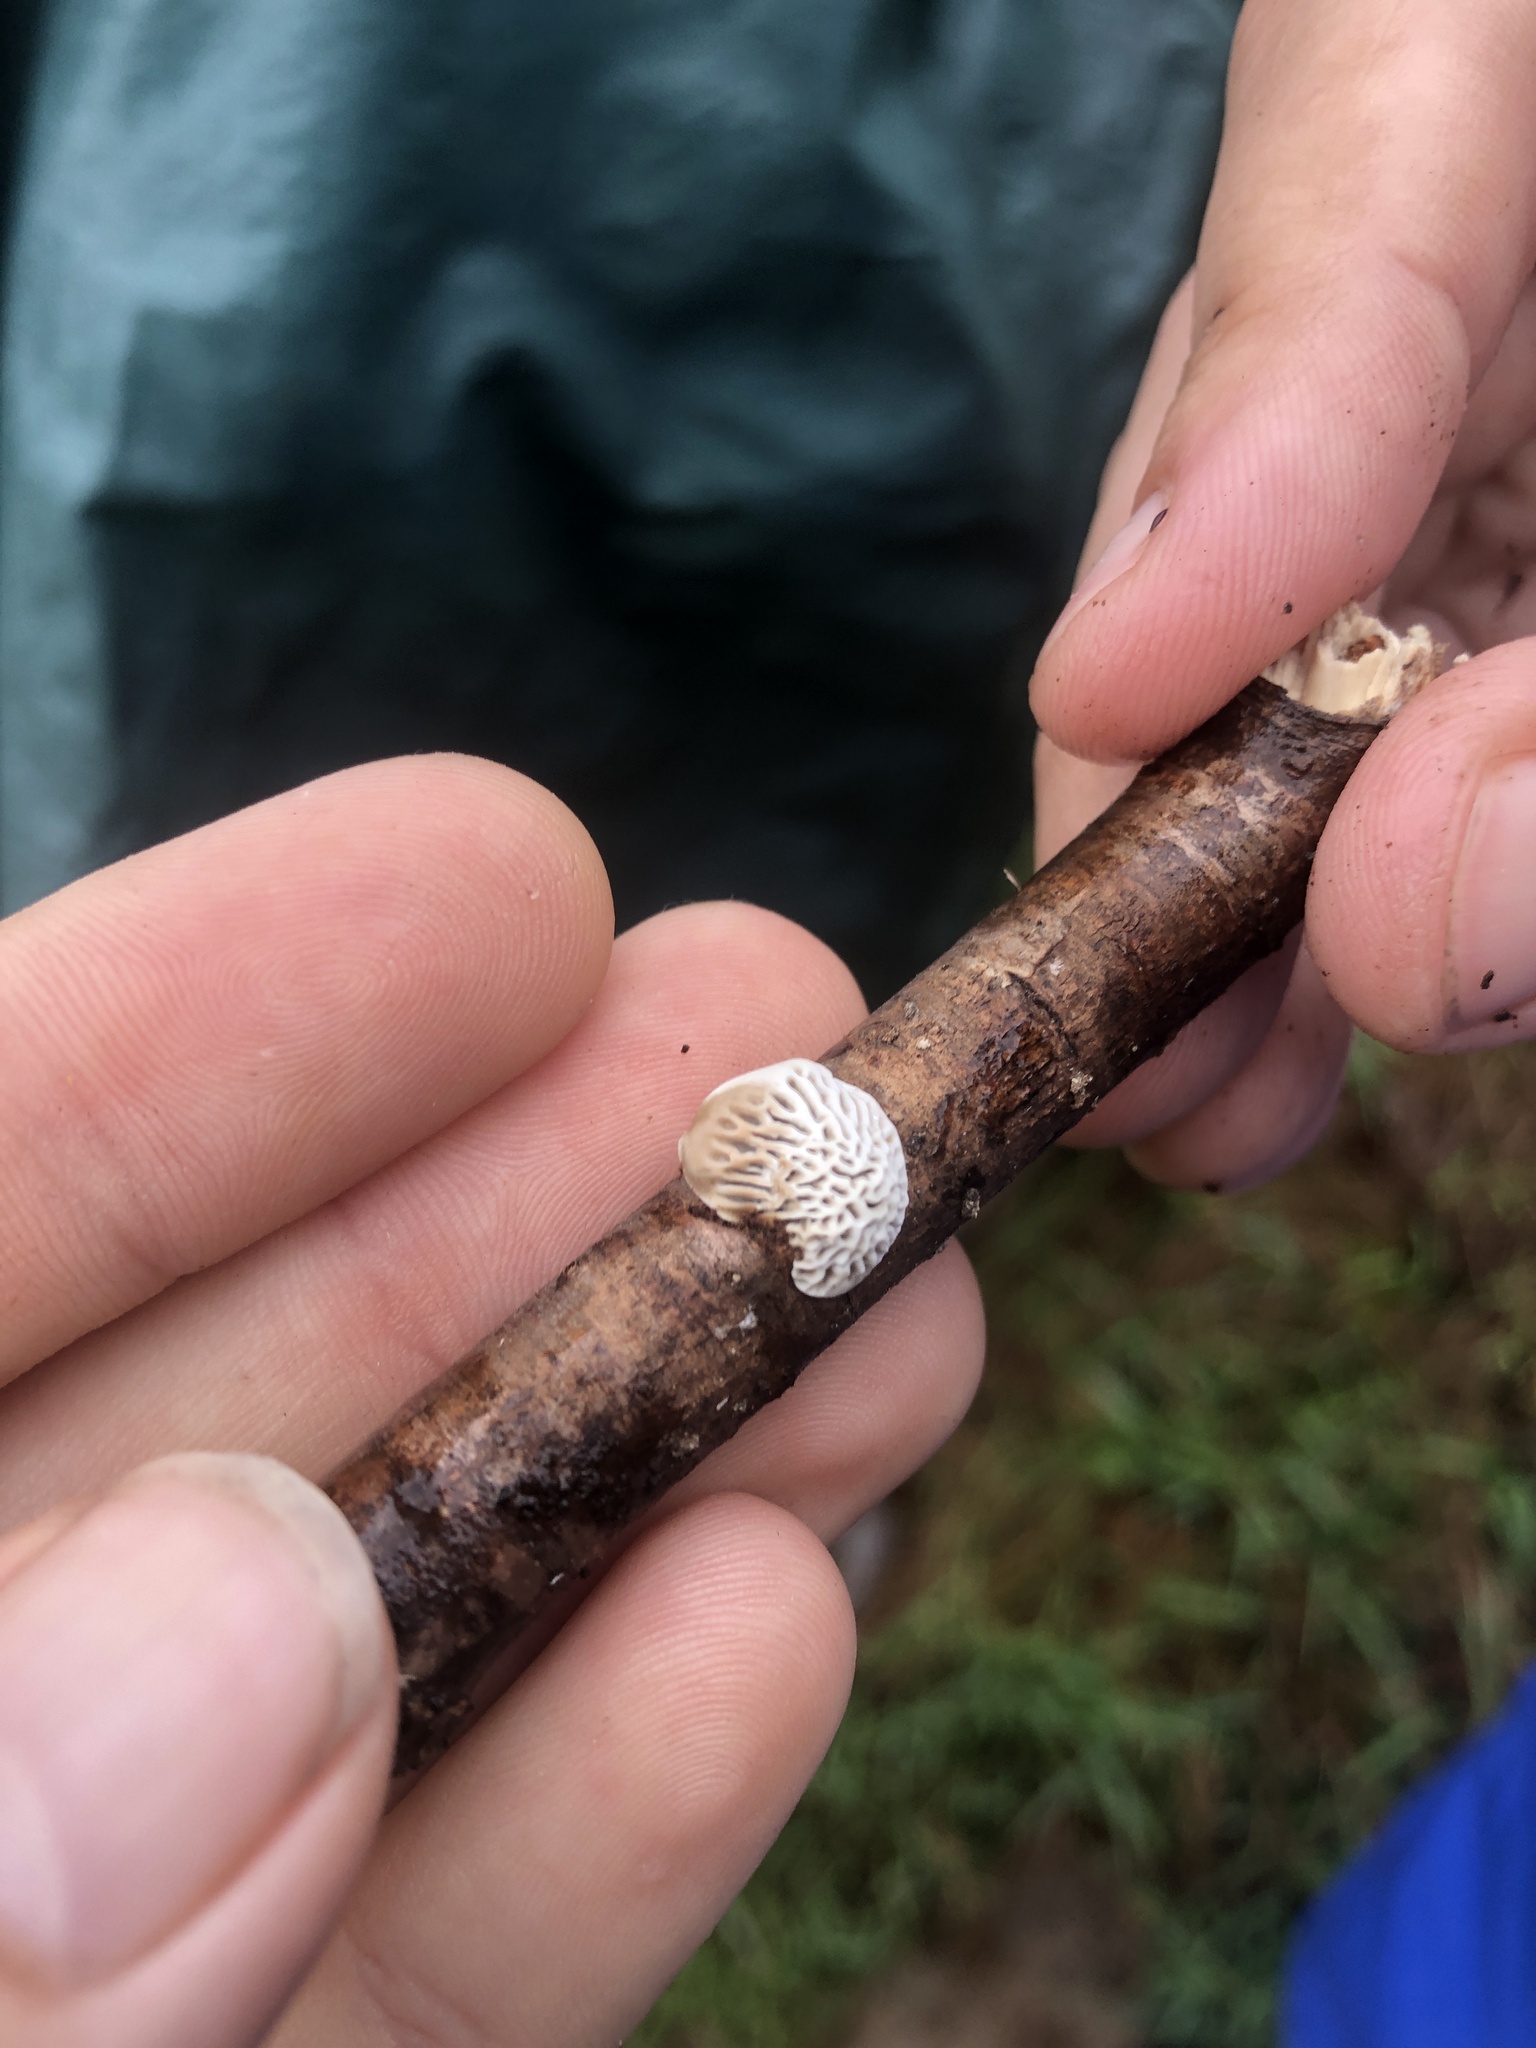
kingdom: Fungi
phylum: Basidiomycota
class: Agaricomycetes
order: Polyporales
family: Polyporaceae
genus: Daedaleopsis
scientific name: Daedaleopsis confragosa
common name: Blushing bracket
